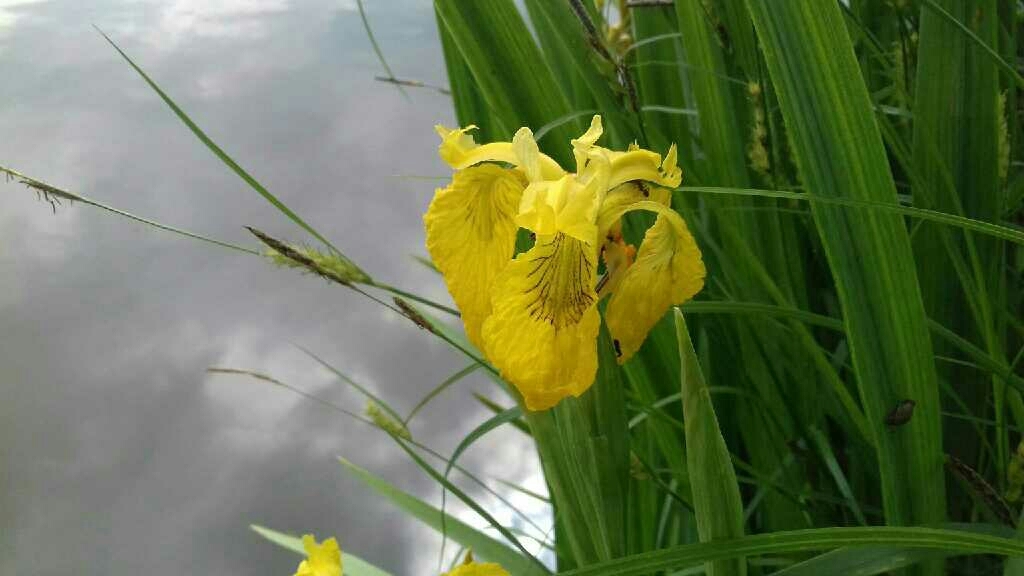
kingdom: Plantae
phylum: Tracheophyta
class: Liliopsida
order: Asparagales
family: Iridaceae
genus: Iris
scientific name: Iris pseudacorus
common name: Yellow flag
